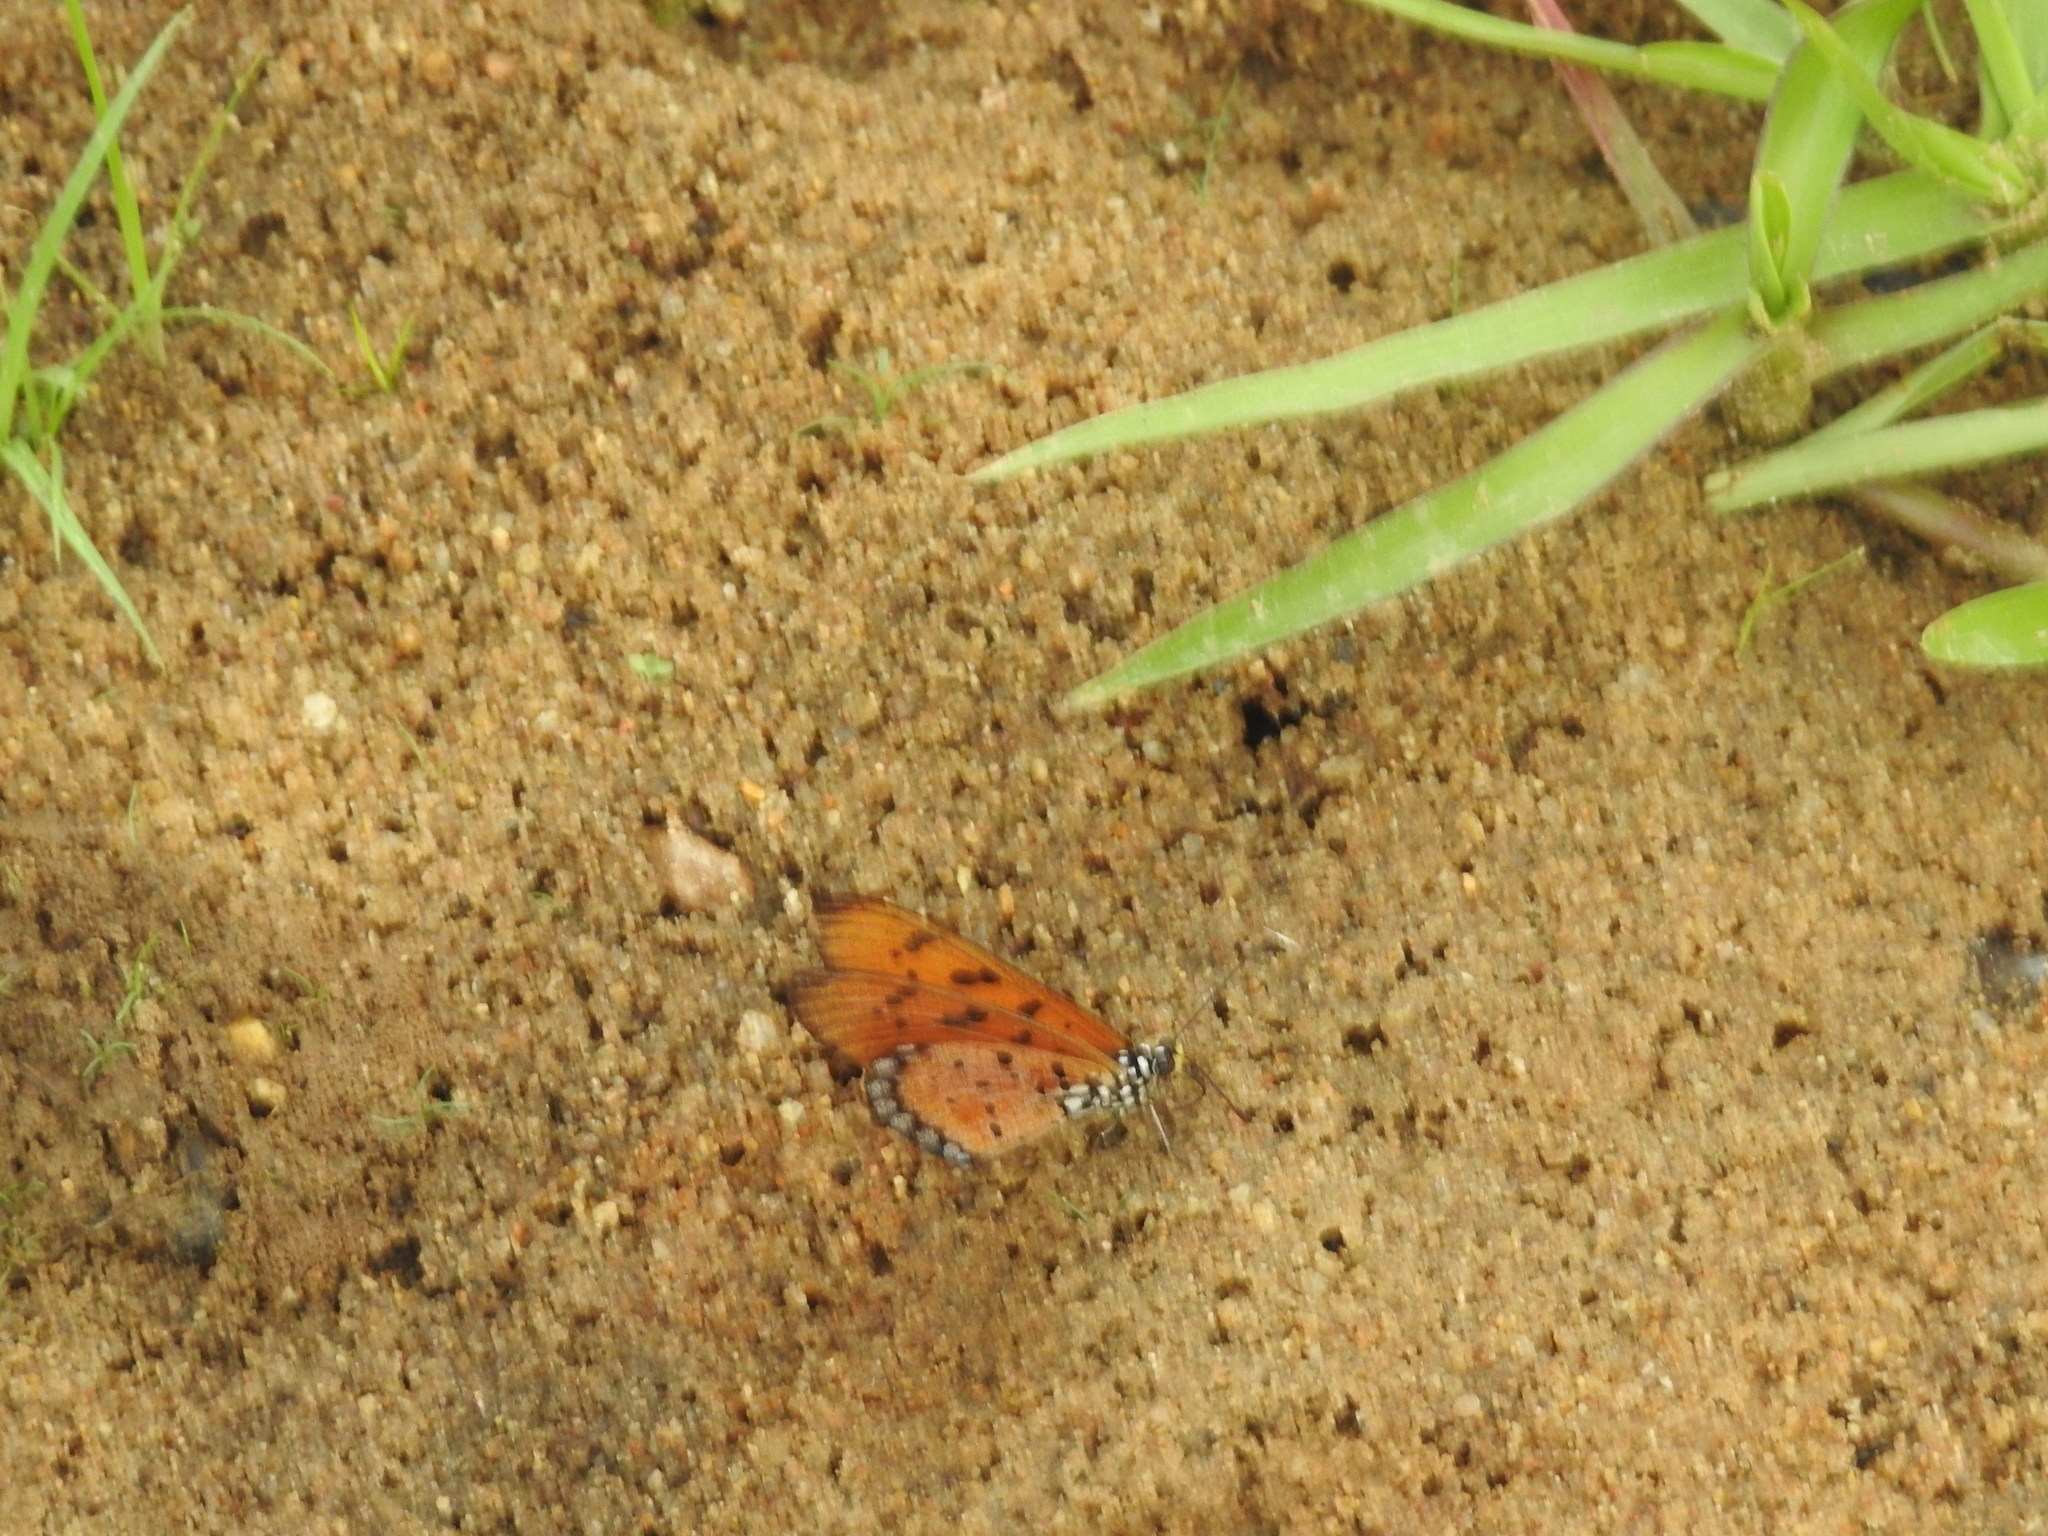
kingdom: Animalia
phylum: Arthropoda
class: Insecta
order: Lepidoptera
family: Nymphalidae
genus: Acraea
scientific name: Acraea terpsicore
